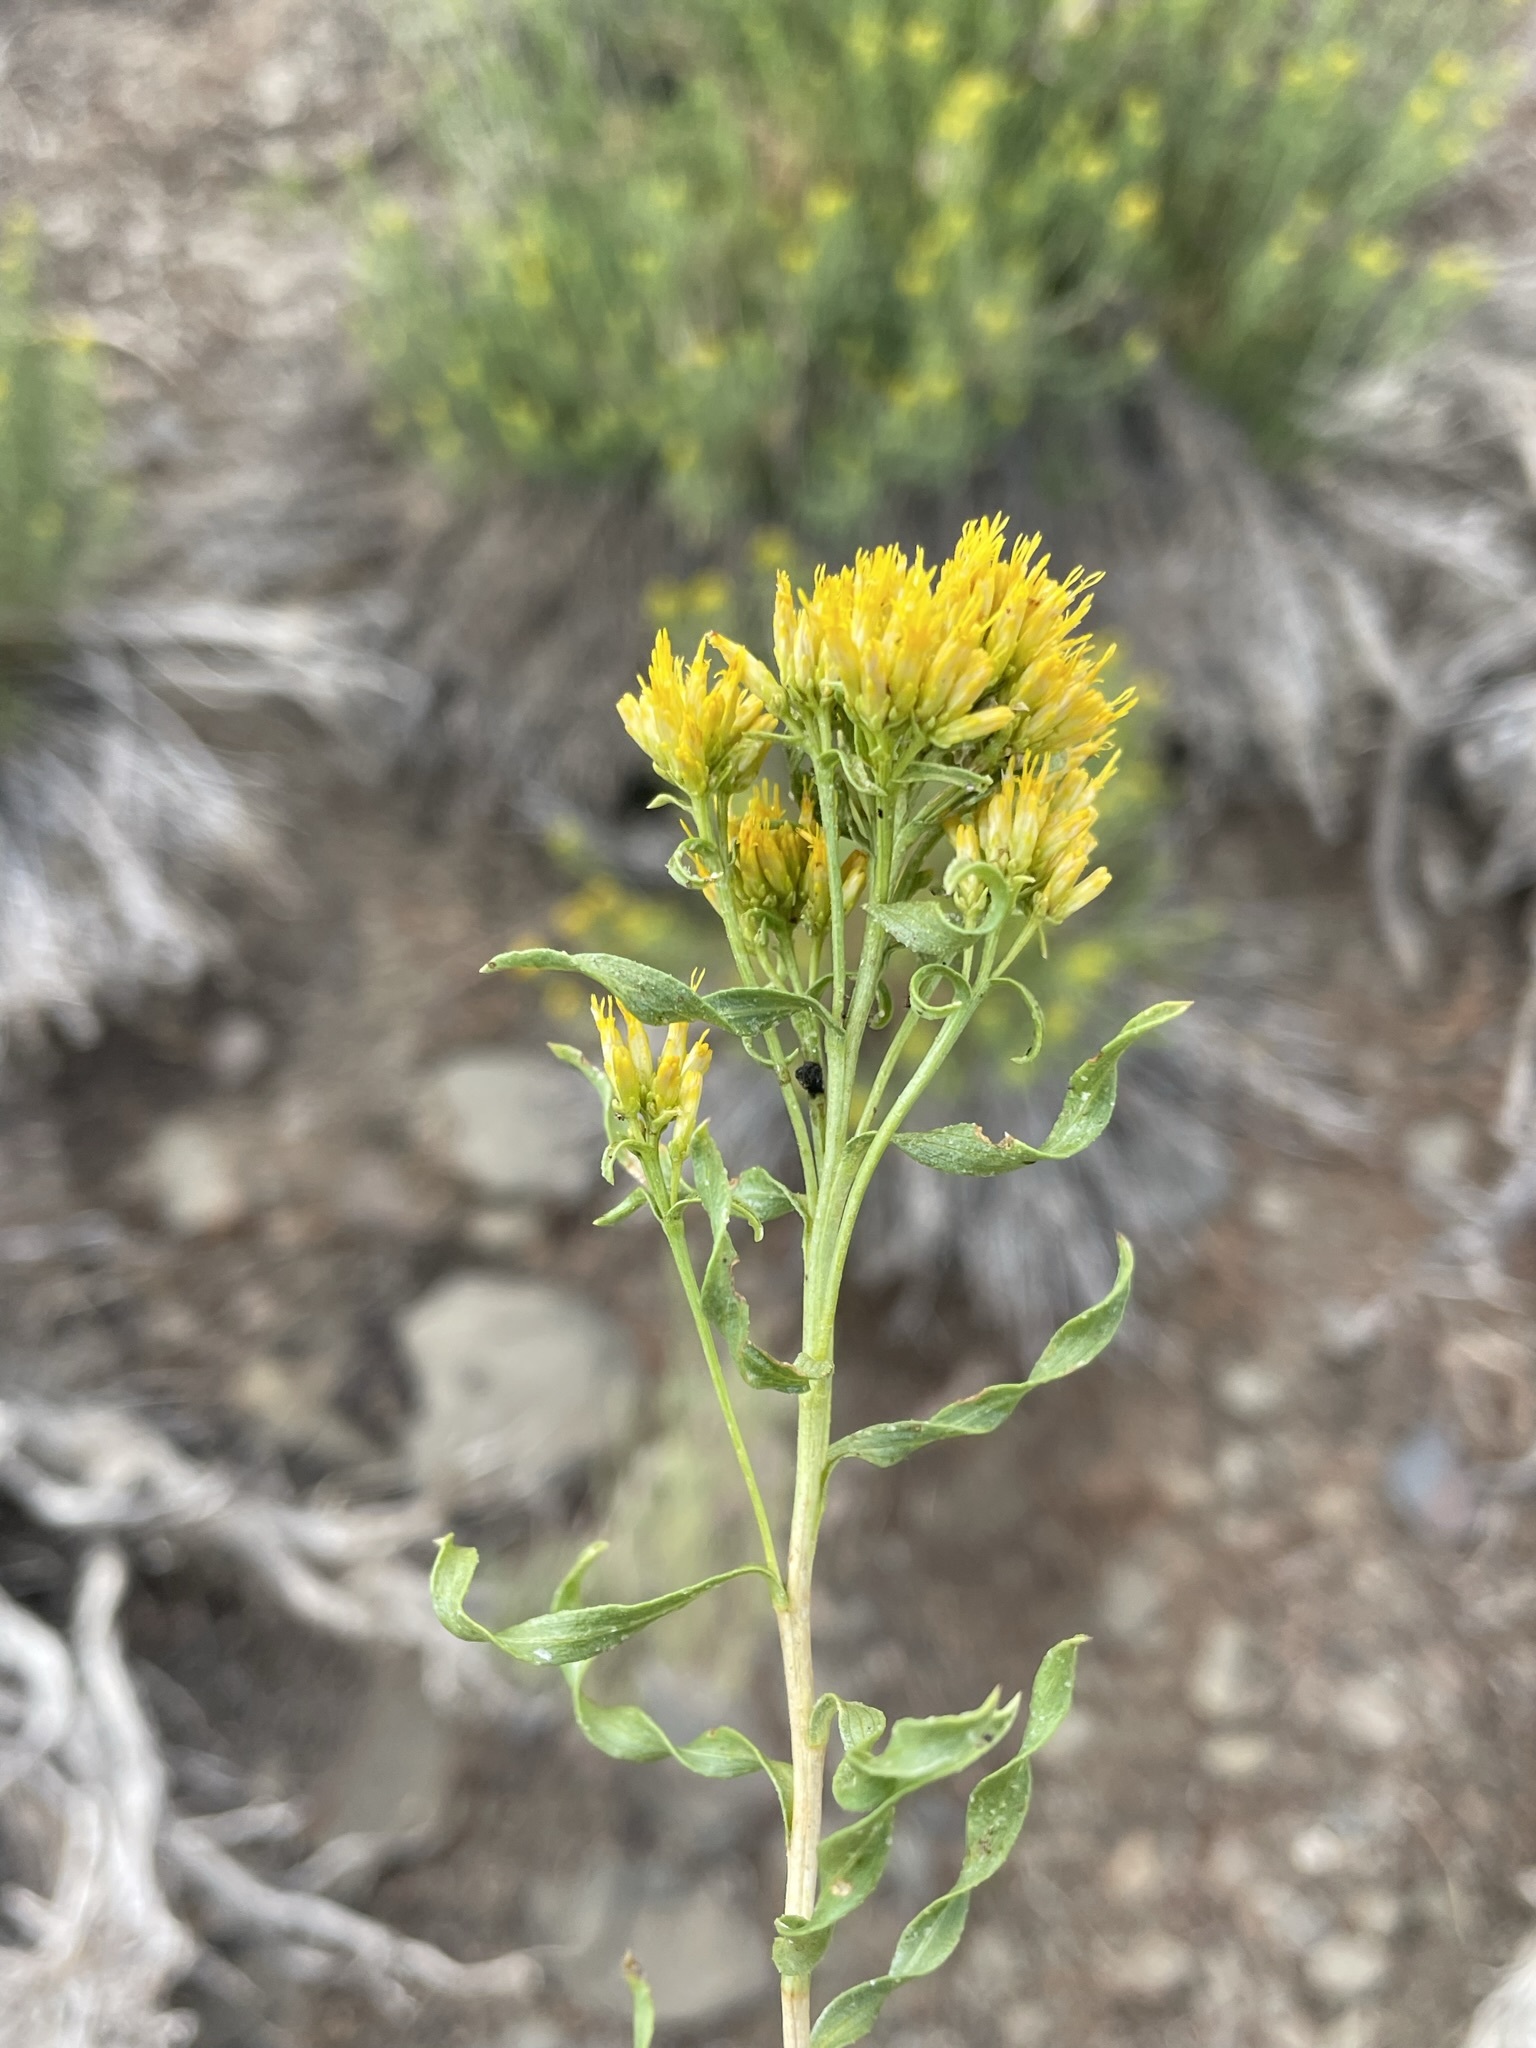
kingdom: Plantae
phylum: Tracheophyta
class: Magnoliopsida
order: Asterales
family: Asteraceae
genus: Chrysothamnus
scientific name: Chrysothamnus viscidiflorus
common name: Yellow rabbitbrush
